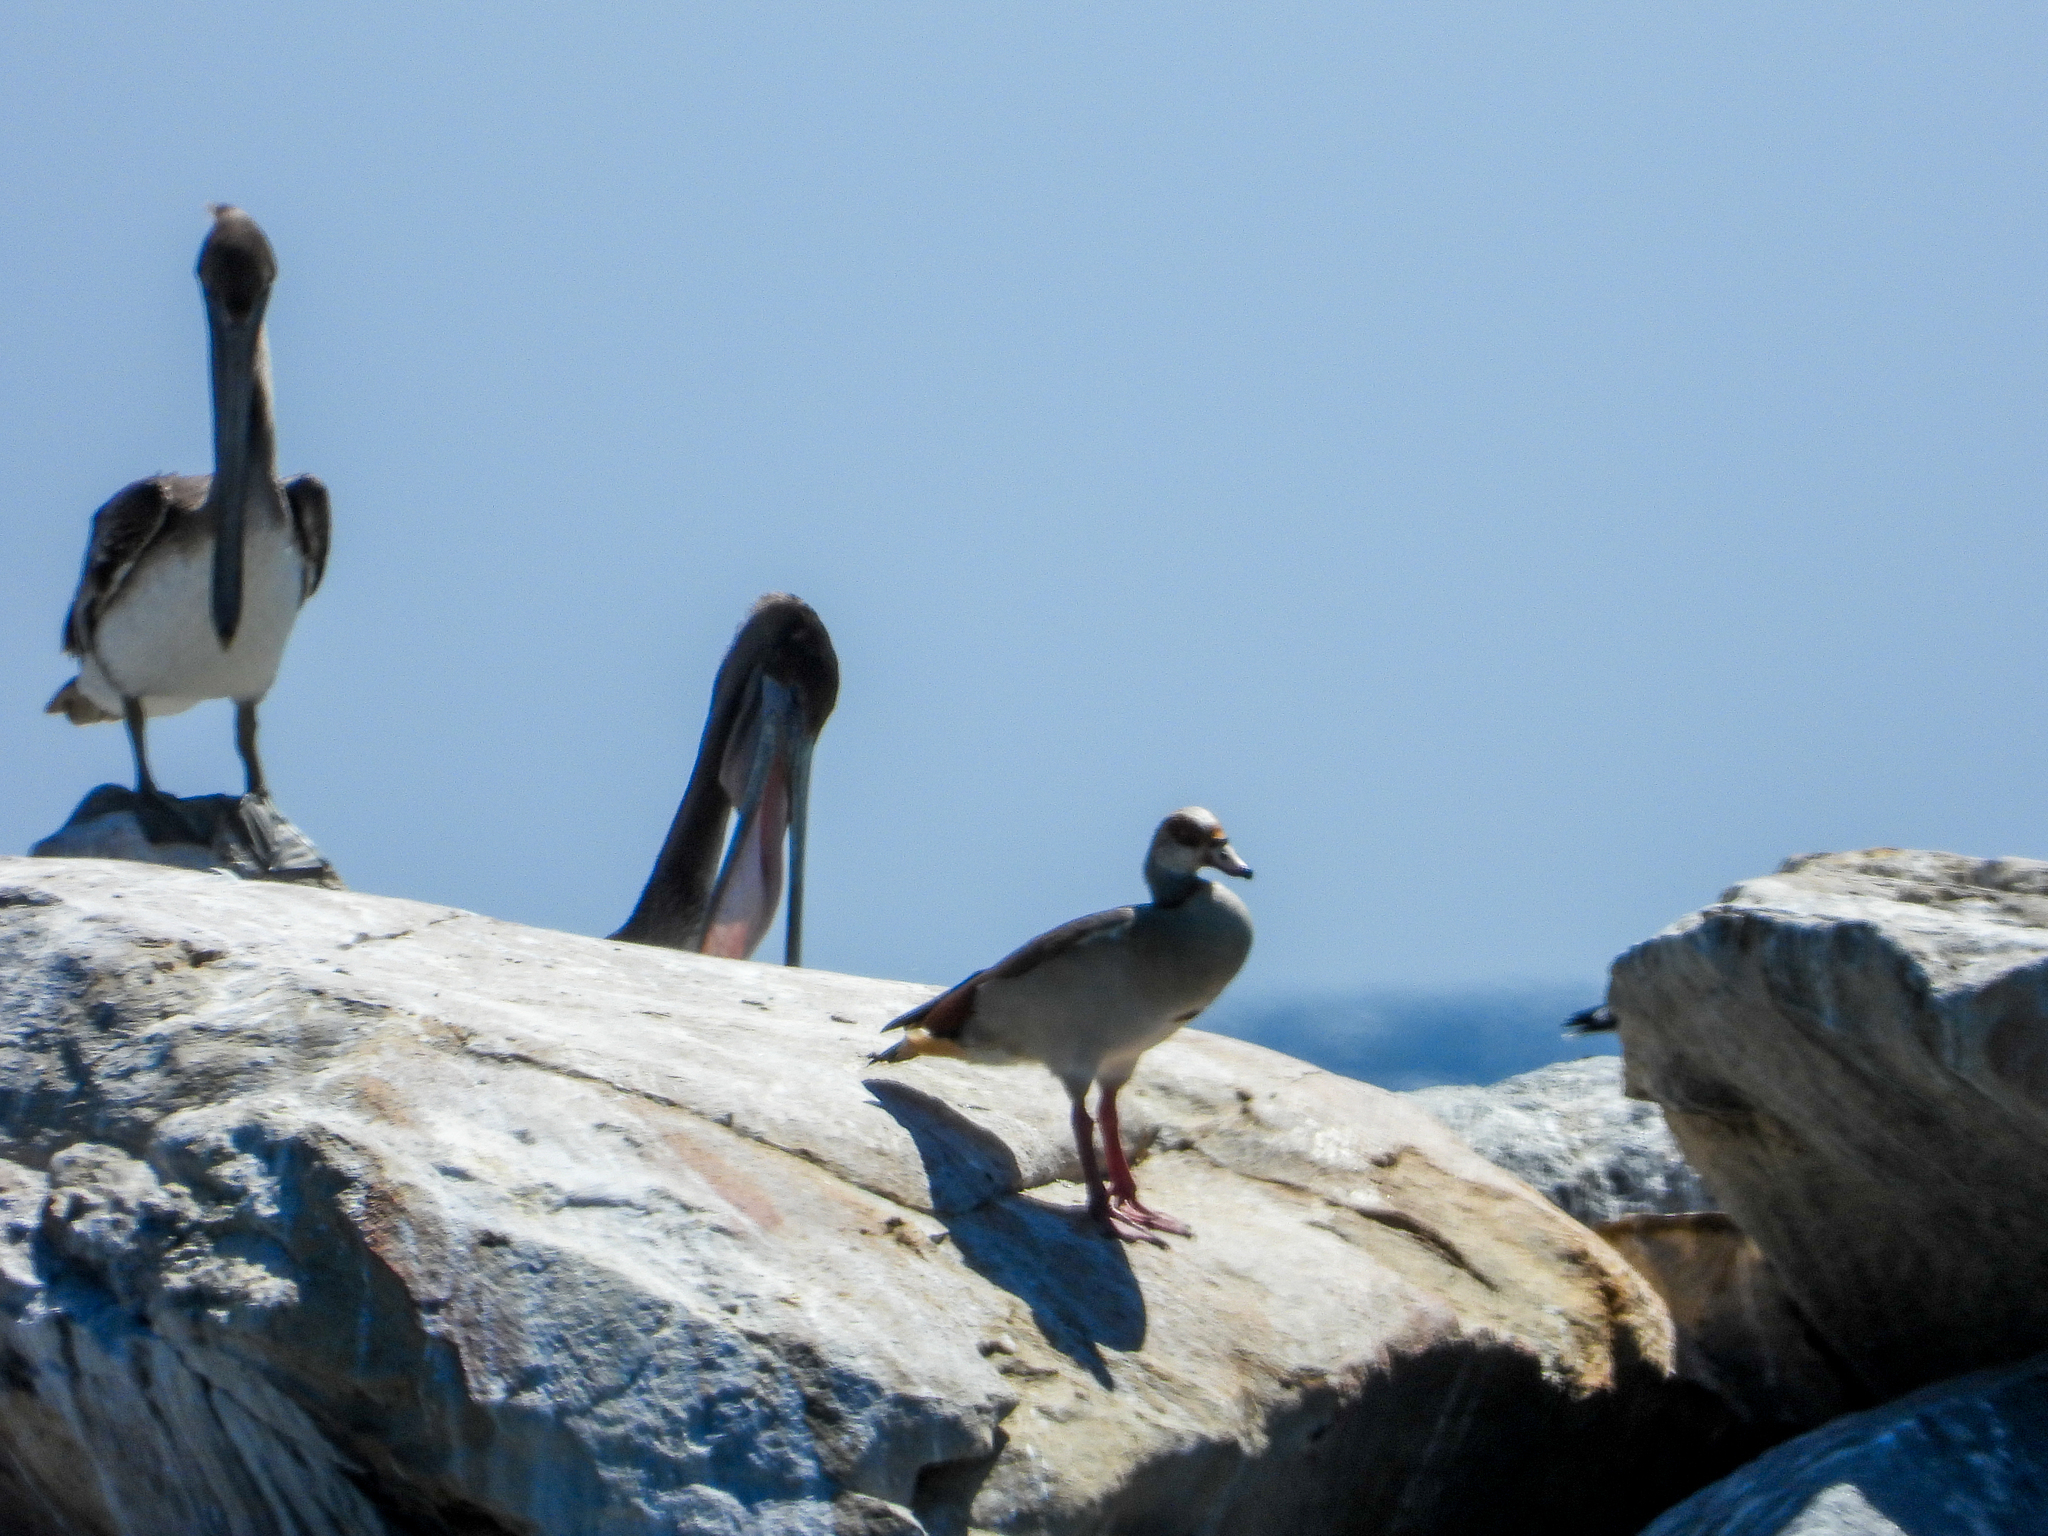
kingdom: Animalia
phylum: Chordata
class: Aves
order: Anseriformes
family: Anatidae
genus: Alopochen
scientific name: Alopochen aegyptiaca
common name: Egyptian goose
